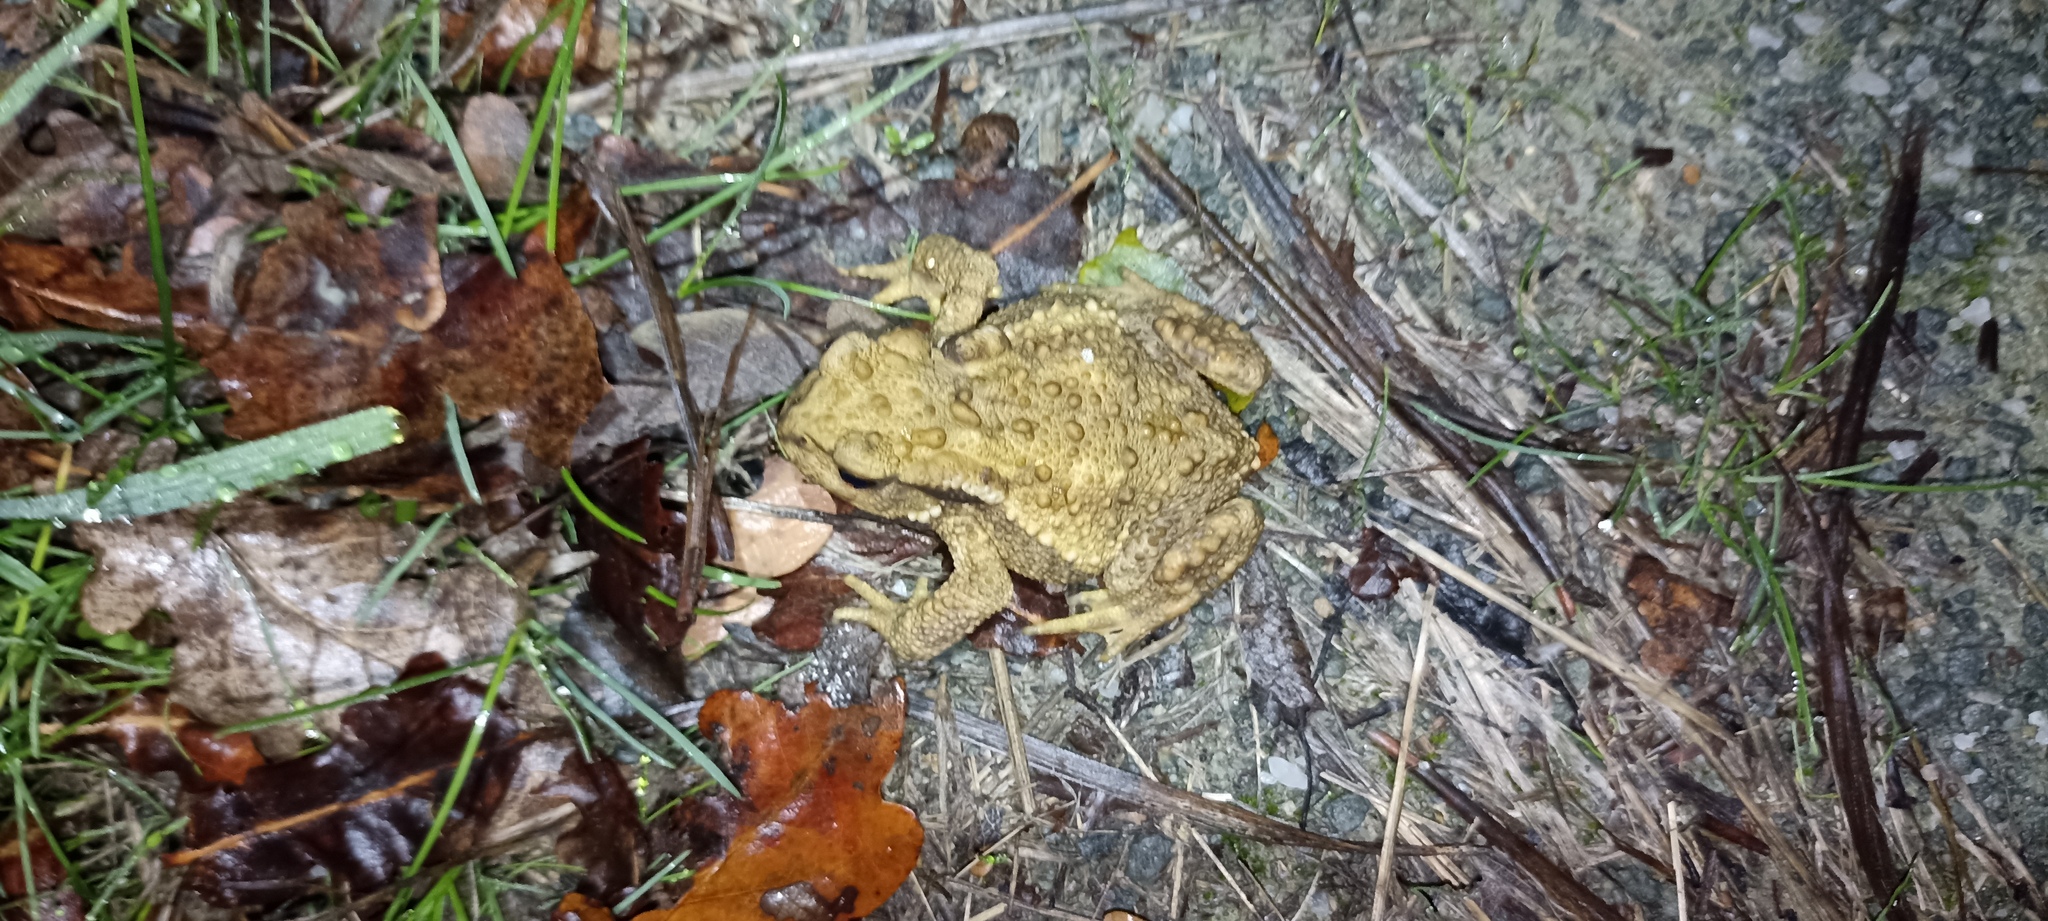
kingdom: Animalia
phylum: Chordata
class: Amphibia
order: Anura
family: Bufonidae
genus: Bufo
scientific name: Bufo spinosus
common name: Western common toad
